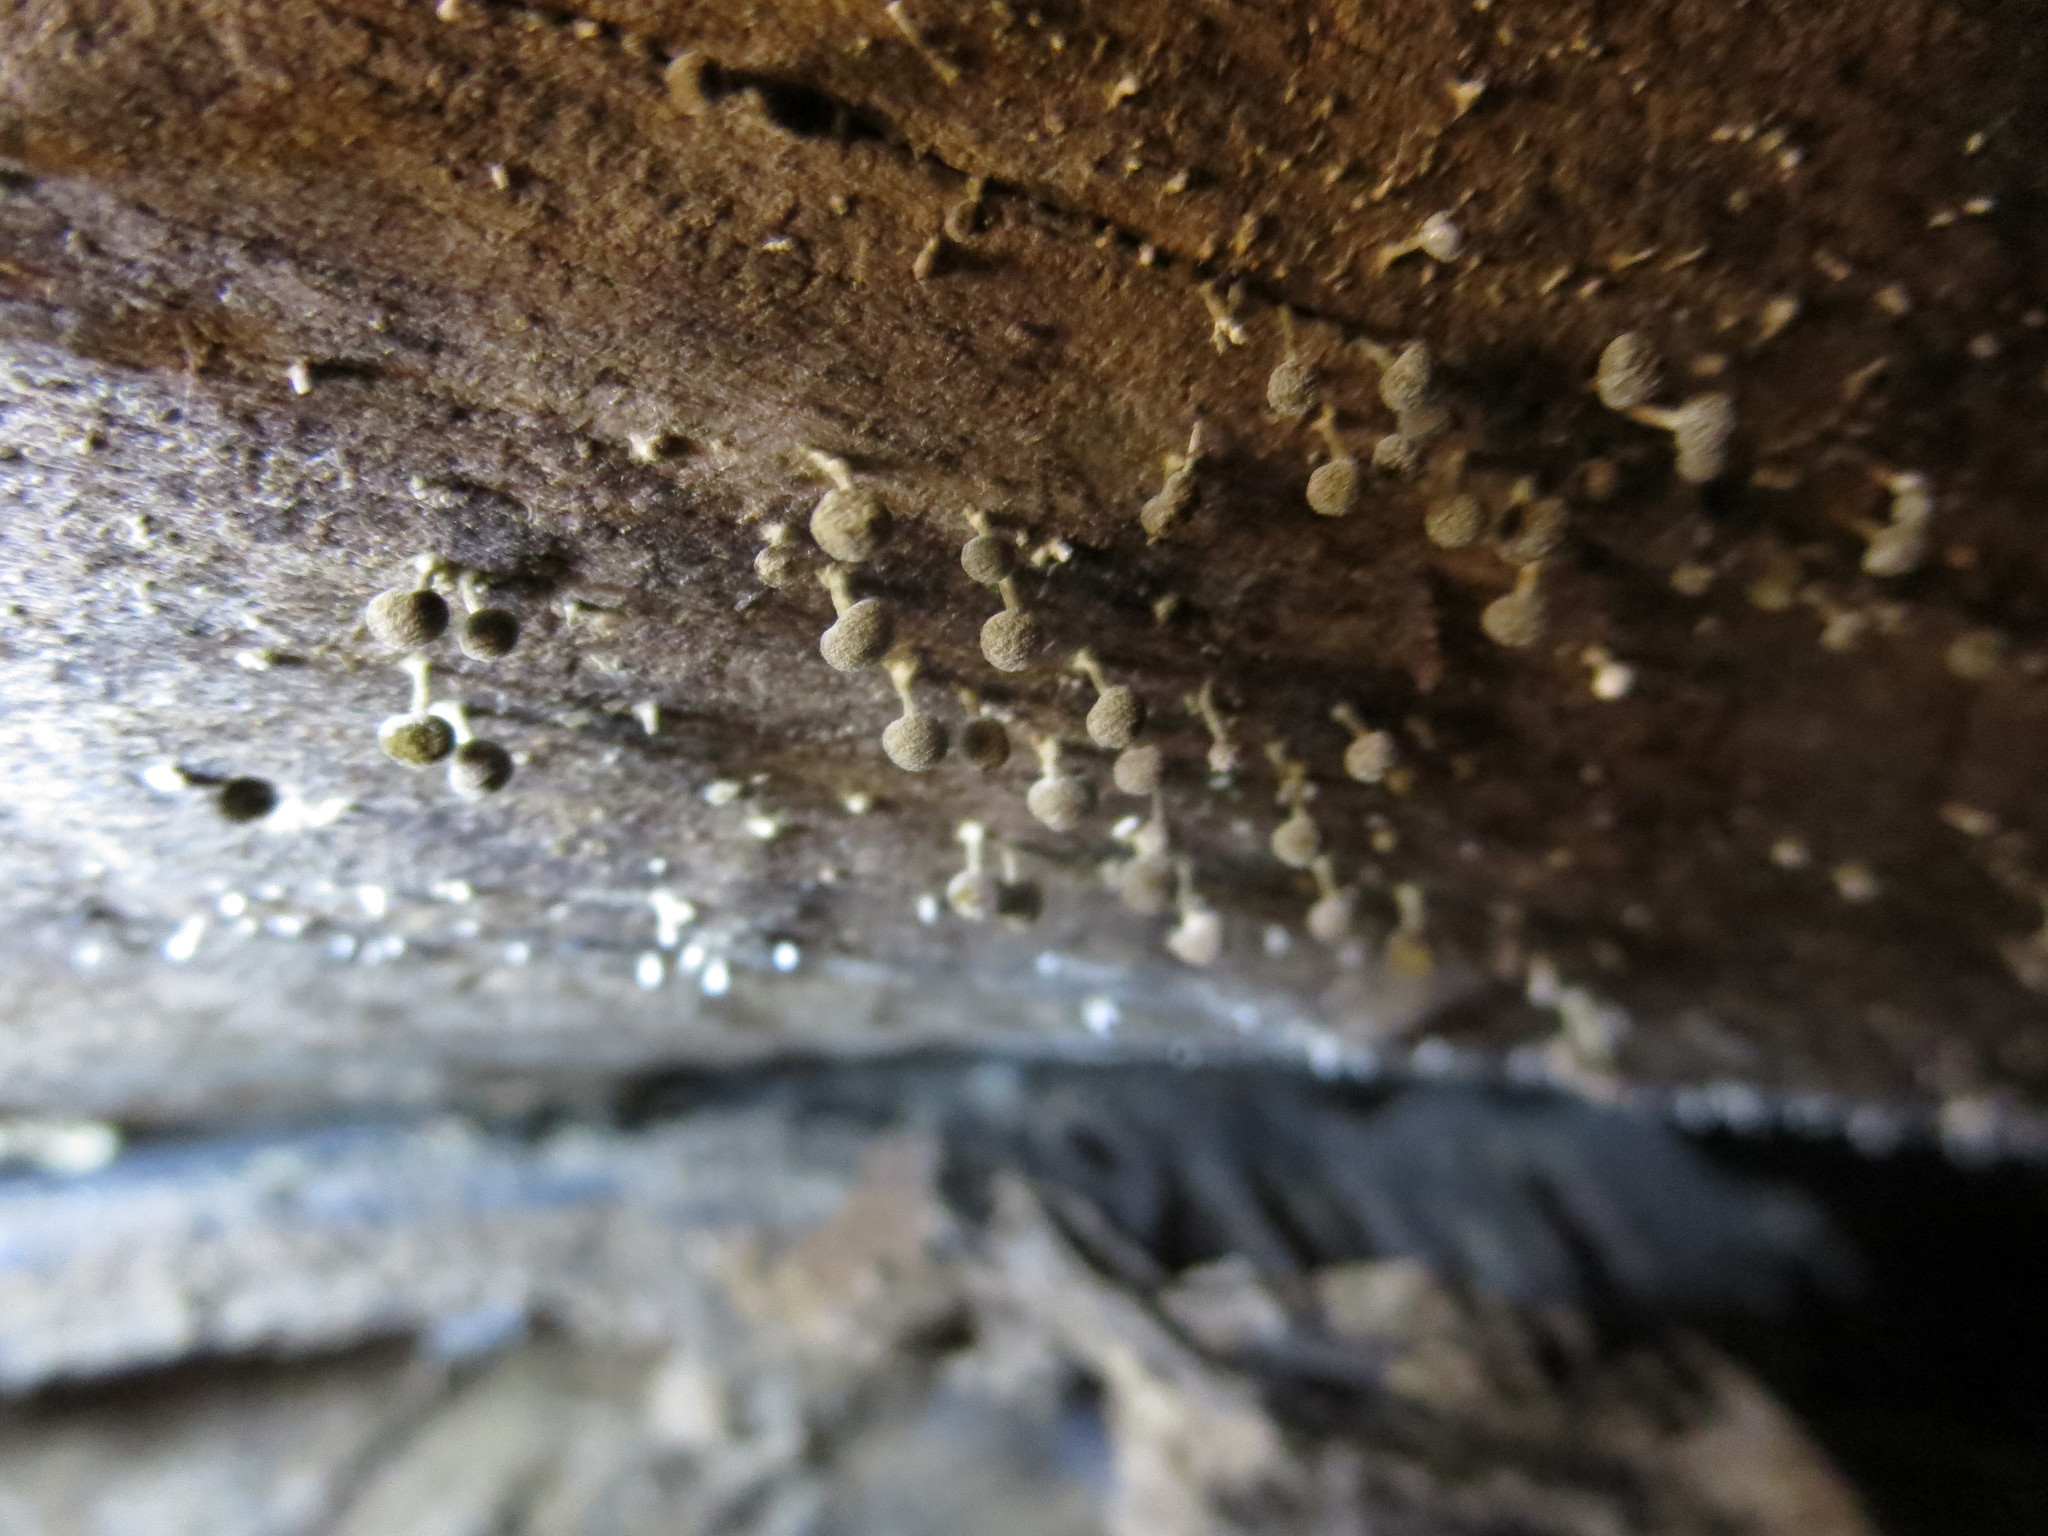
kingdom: Fungi
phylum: Basidiomycota
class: Atractiellomycetes
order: Atractiellales
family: Phleogenaceae
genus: Phleogena
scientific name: Phleogena faginea
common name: Fenugreek stalkball
